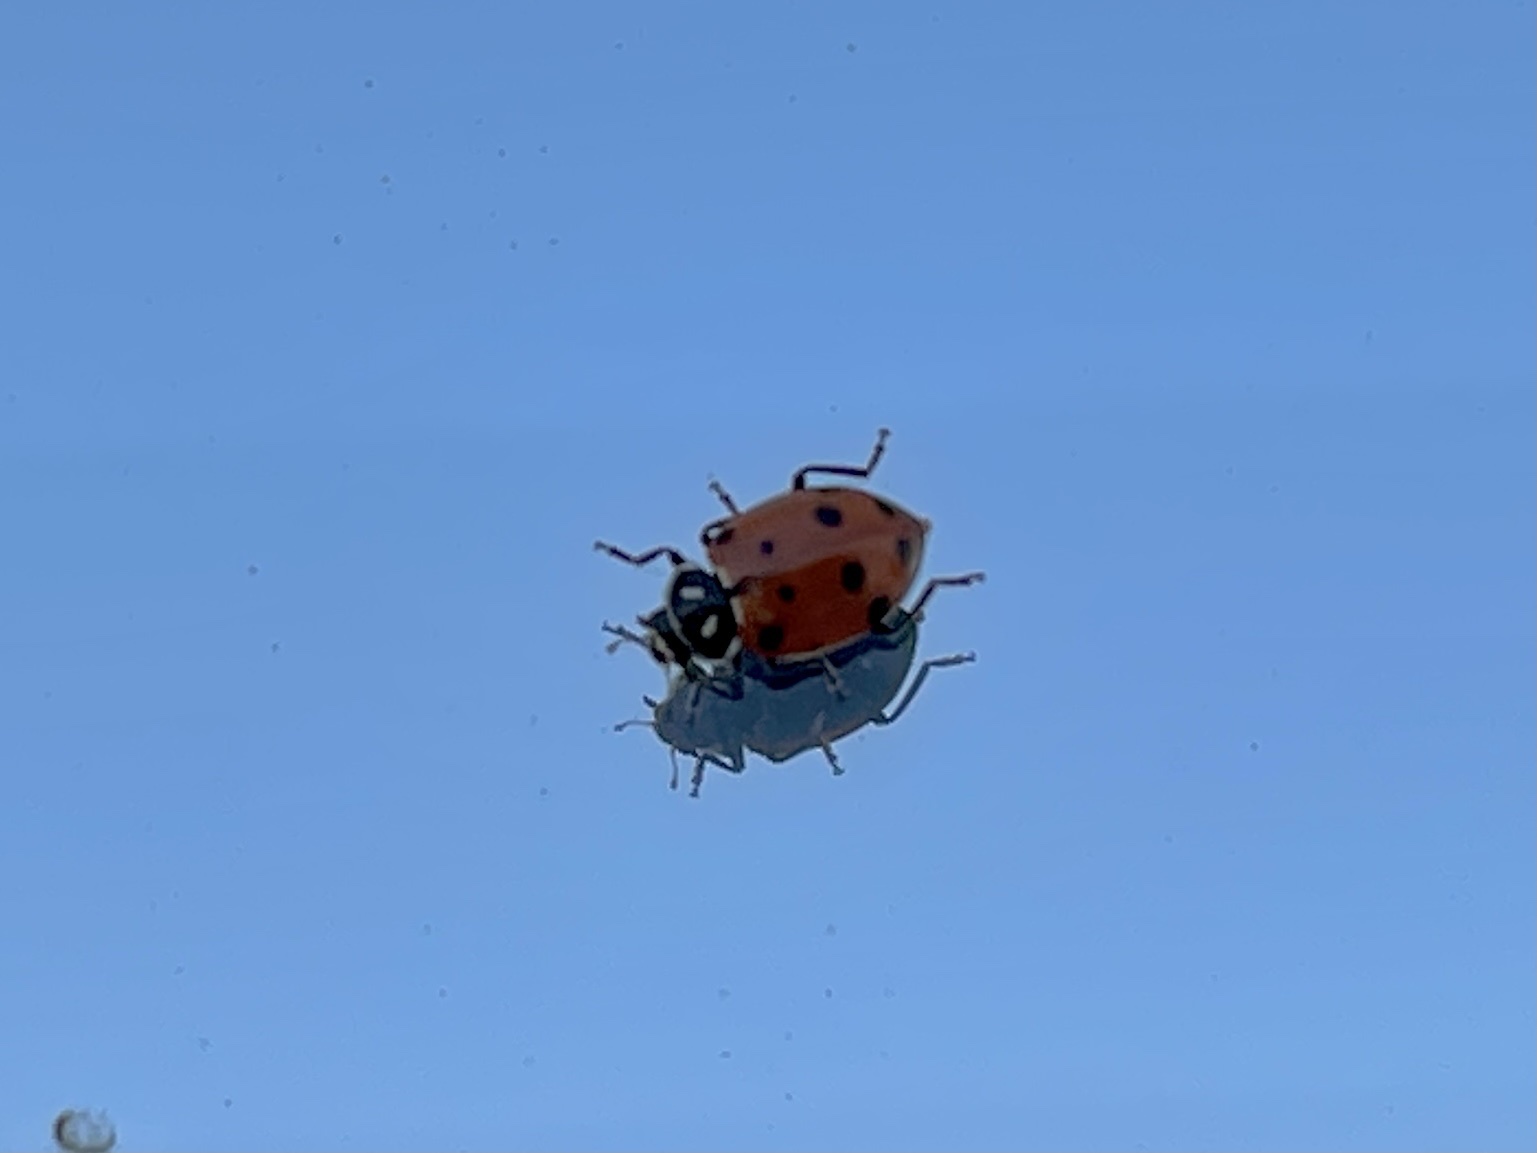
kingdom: Animalia
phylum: Arthropoda
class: Insecta
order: Coleoptera
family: Coccinellidae
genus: Hippodamia
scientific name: Hippodamia convergens
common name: Convergent lady beetle
